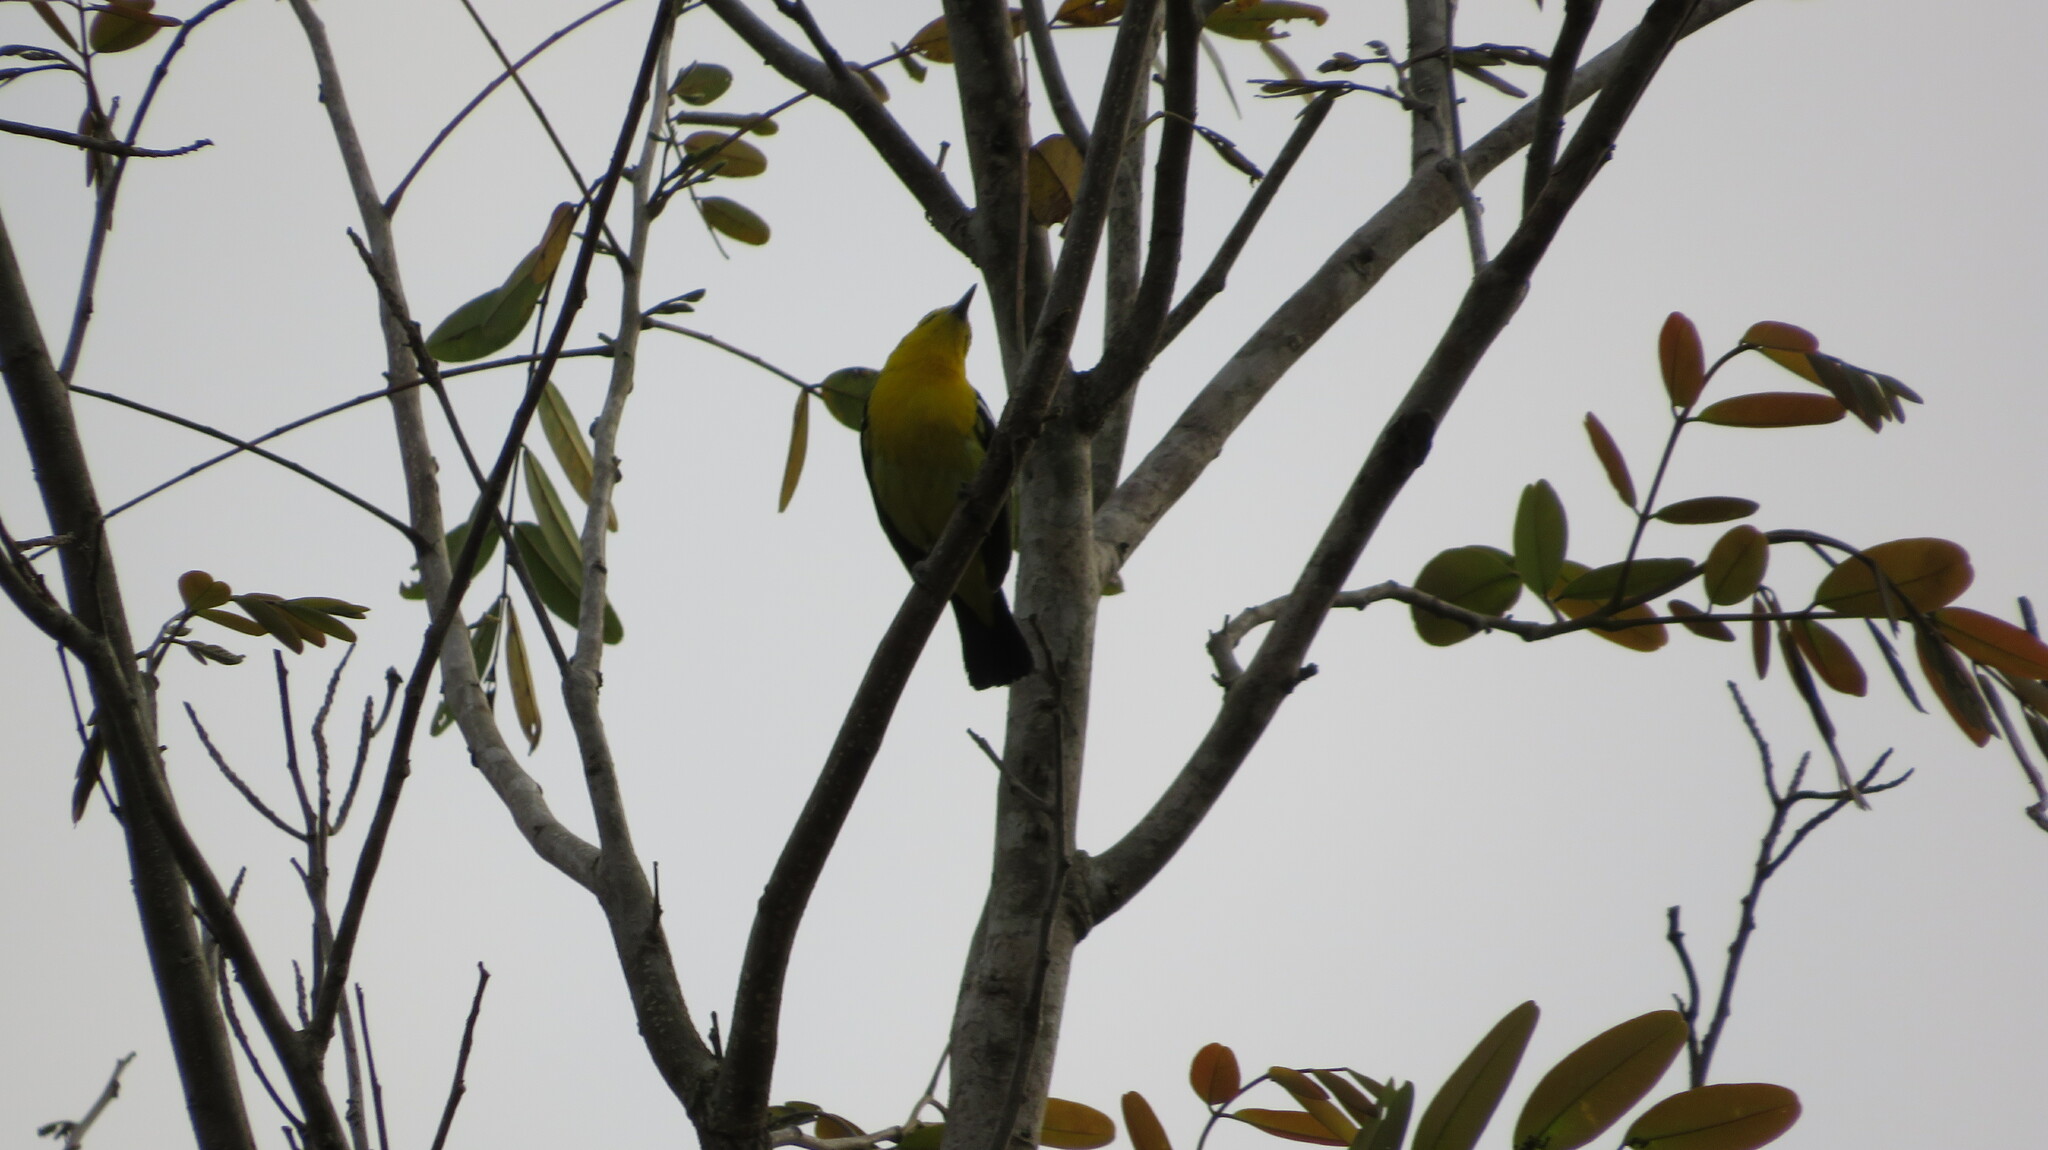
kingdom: Animalia
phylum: Chordata
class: Aves
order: Passeriformes
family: Aegithinidae
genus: Aegithina
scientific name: Aegithina tiphia
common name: Common iora
